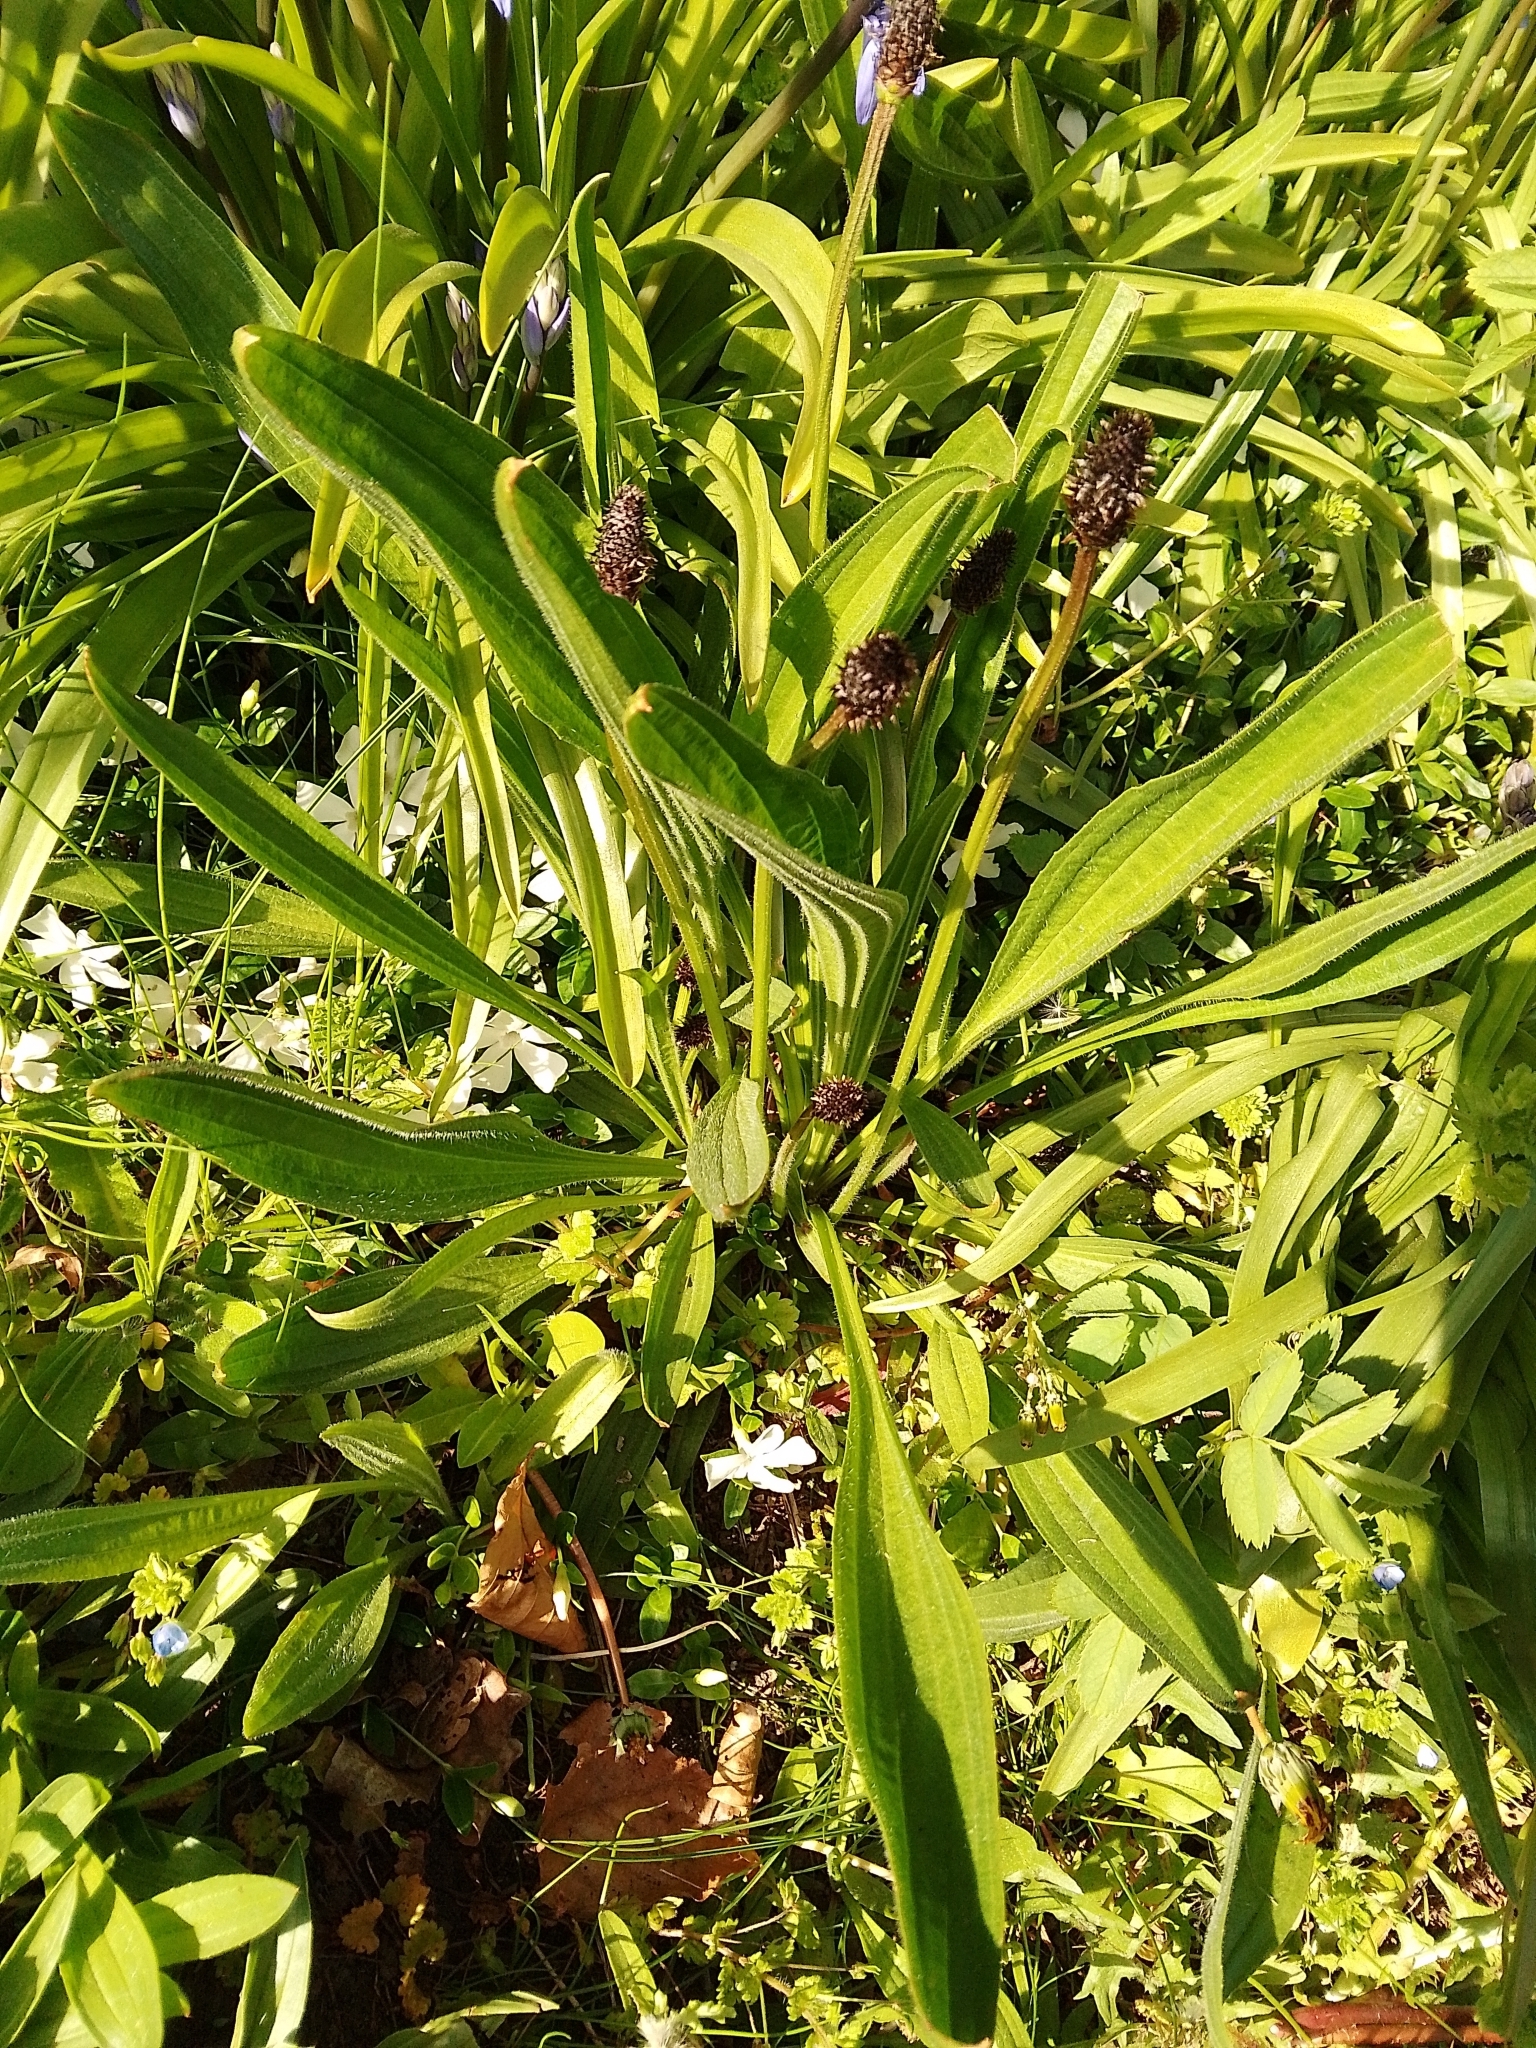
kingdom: Plantae
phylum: Tracheophyta
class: Magnoliopsida
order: Lamiales
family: Plantaginaceae
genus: Plantago
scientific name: Plantago lanceolata
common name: Ribwort plantain
